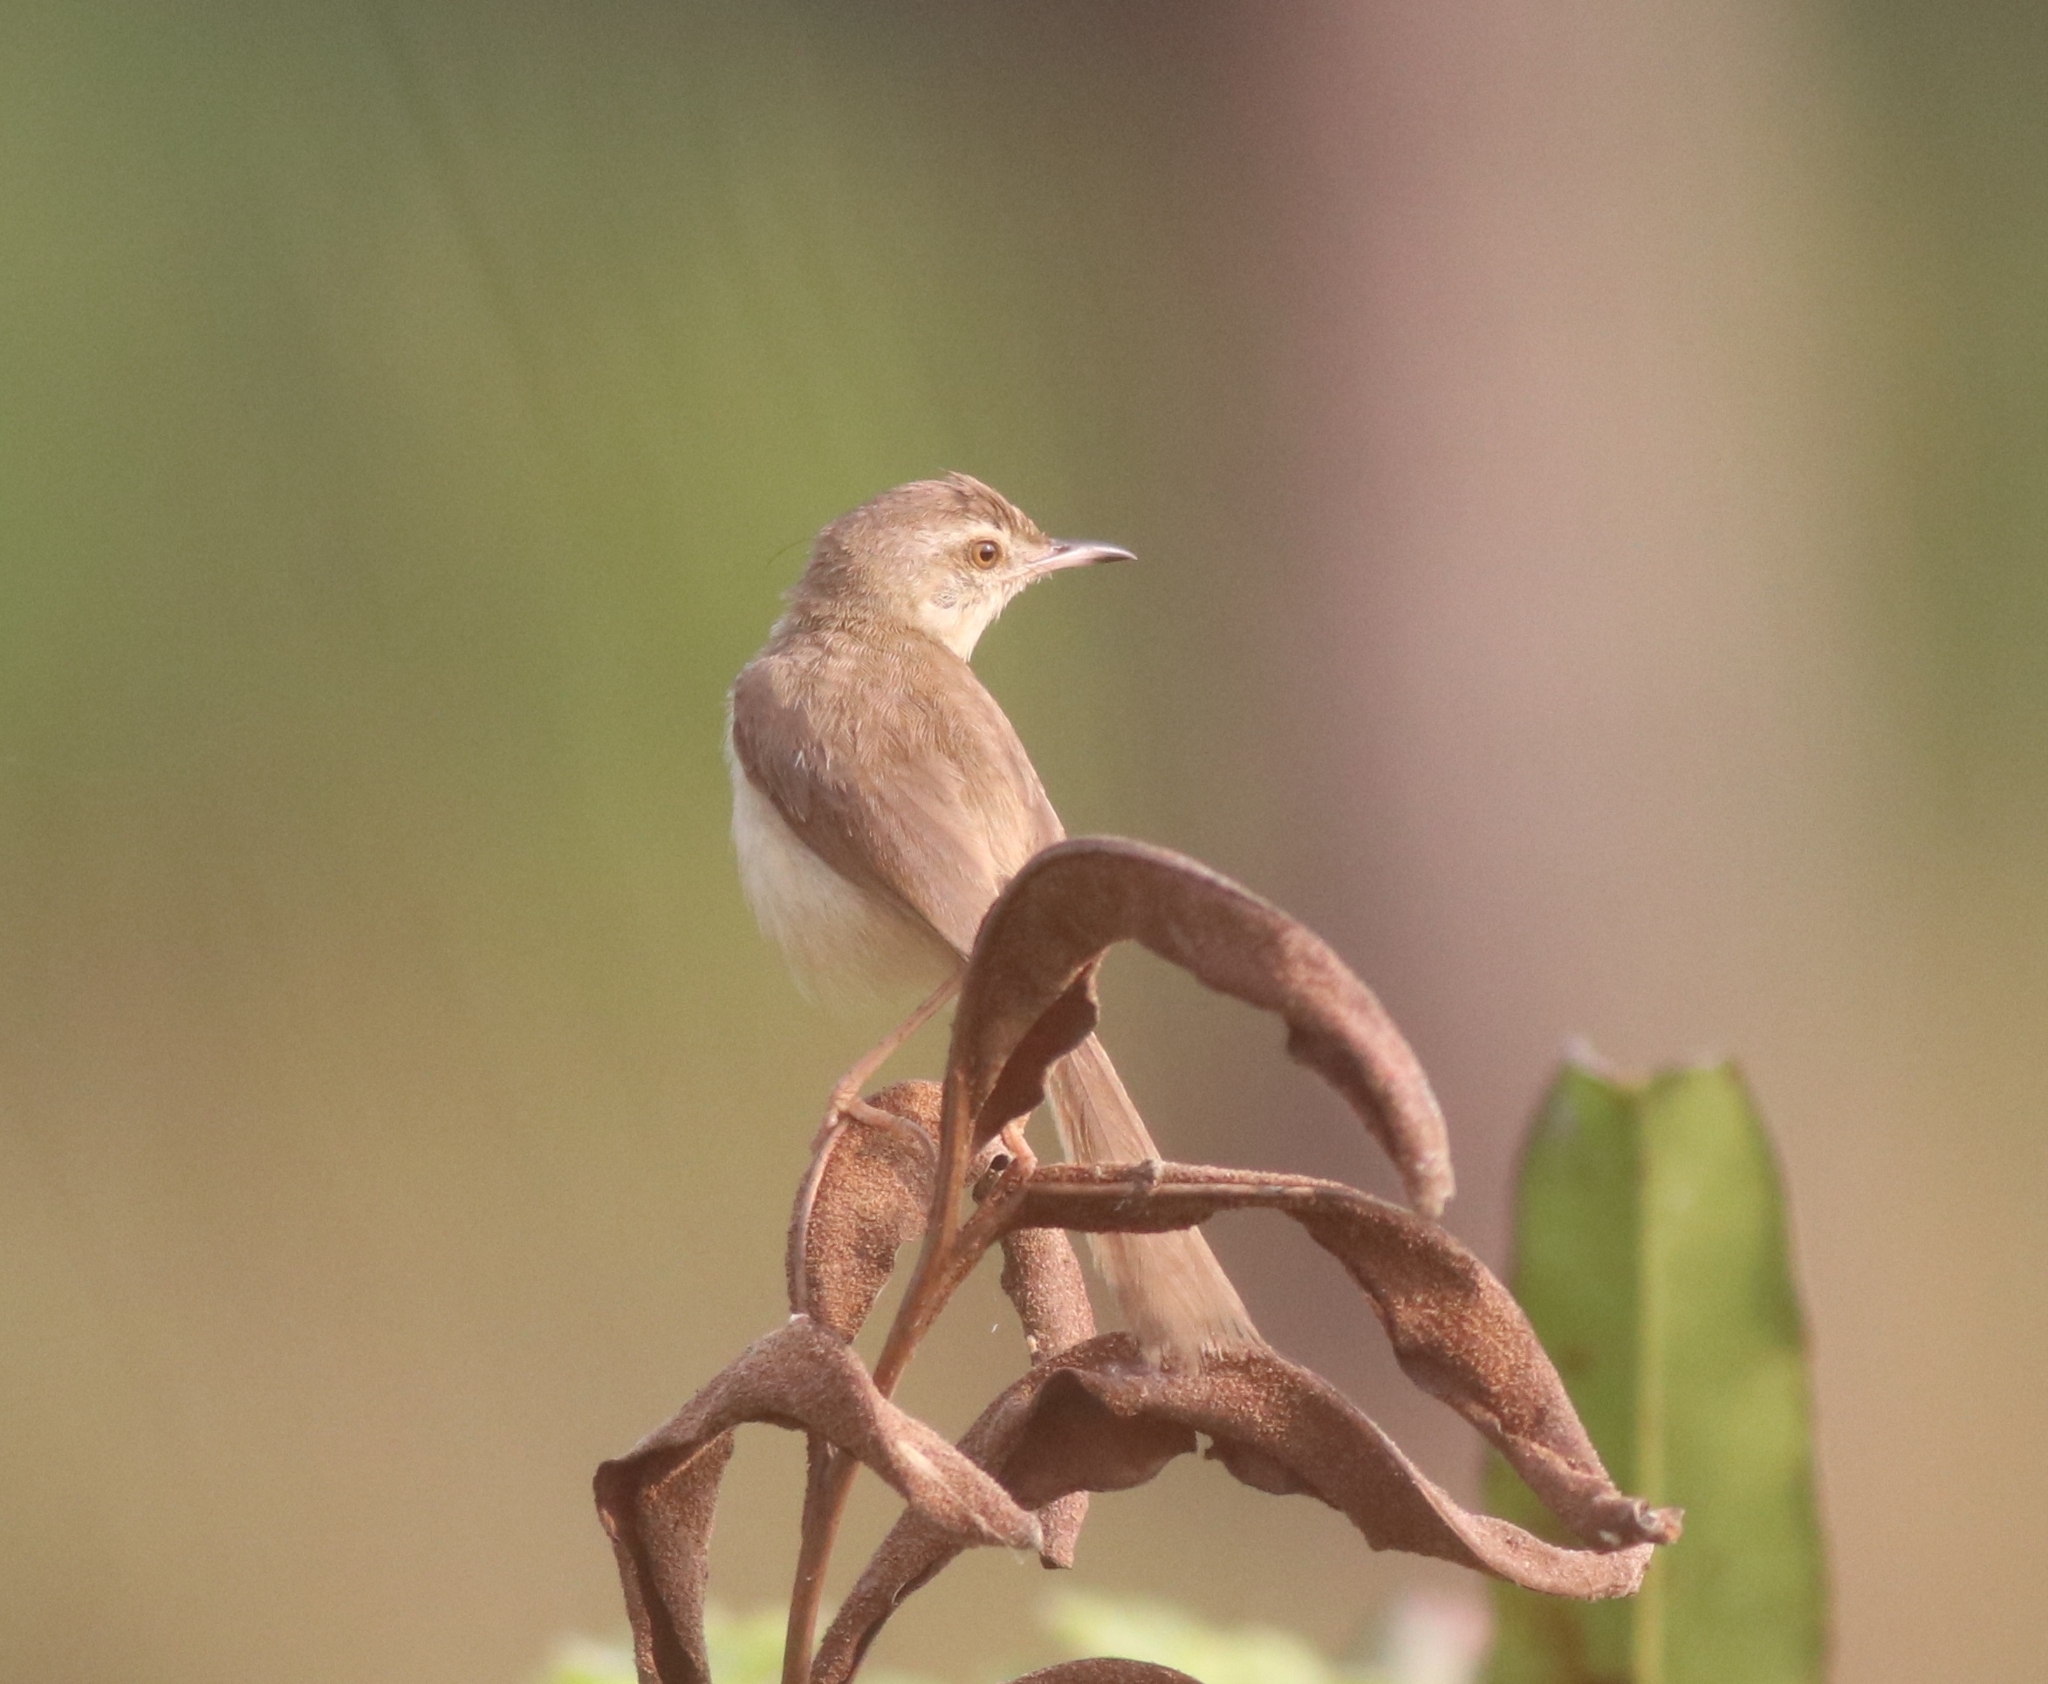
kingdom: Animalia
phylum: Chordata
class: Aves
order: Passeriformes
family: Cisticolidae
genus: Prinia
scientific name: Prinia inornata
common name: Plain prinia
